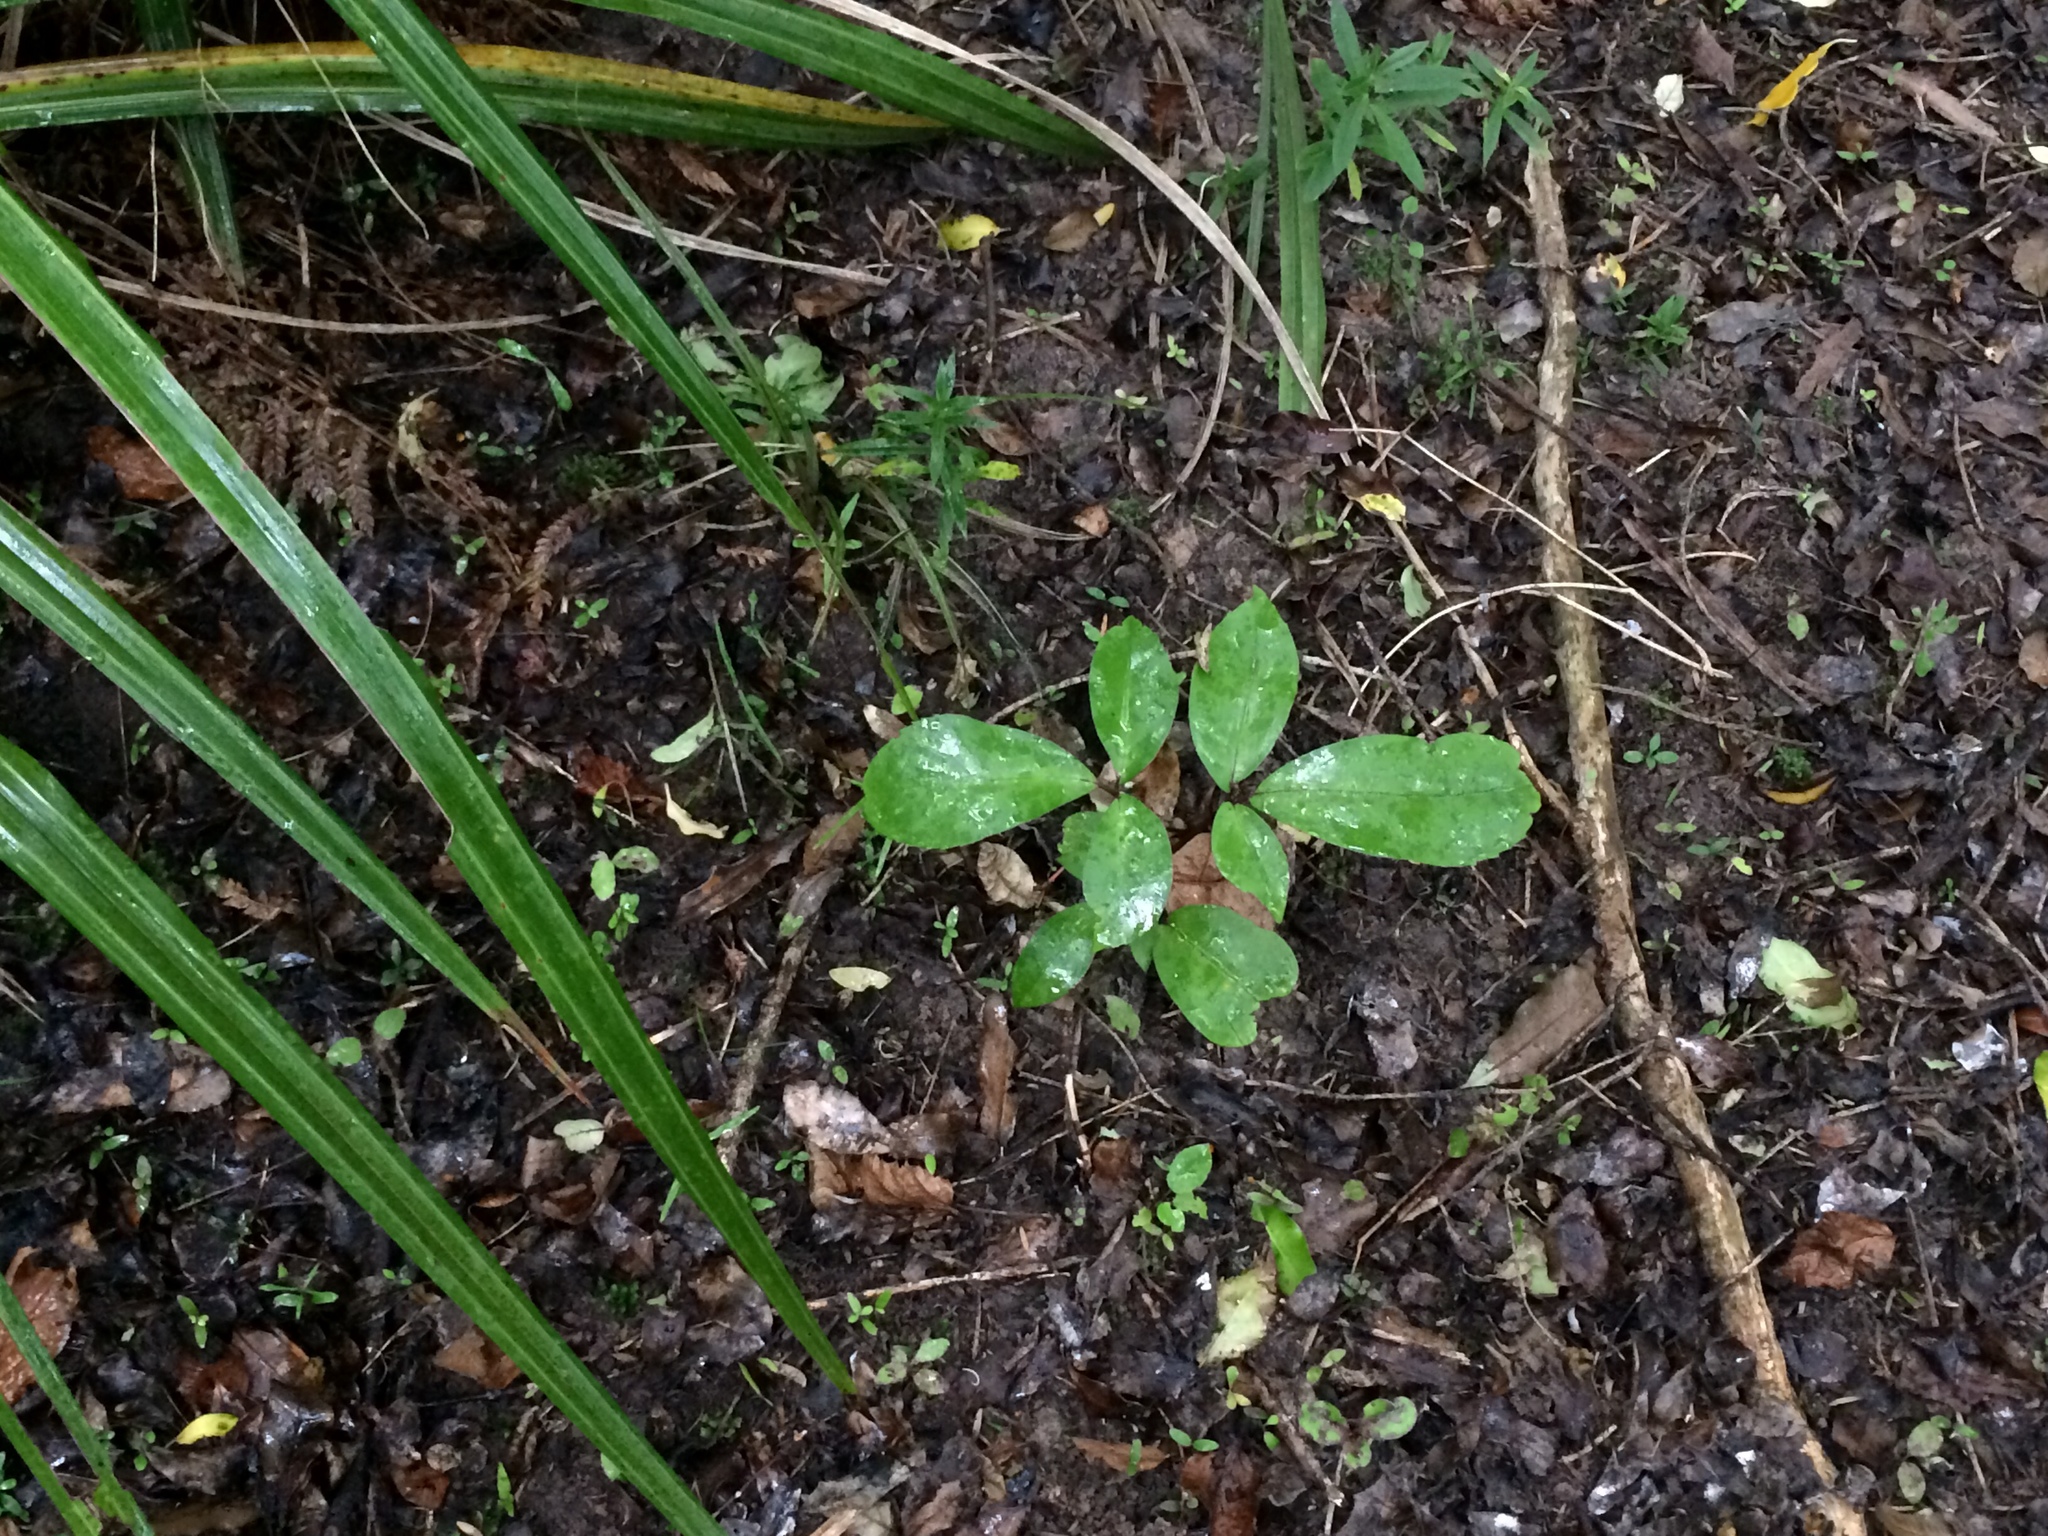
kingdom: Plantae
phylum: Tracheophyta
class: Magnoliopsida
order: Apiales
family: Araliaceae
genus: Neopanax
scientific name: Neopanax laetus
